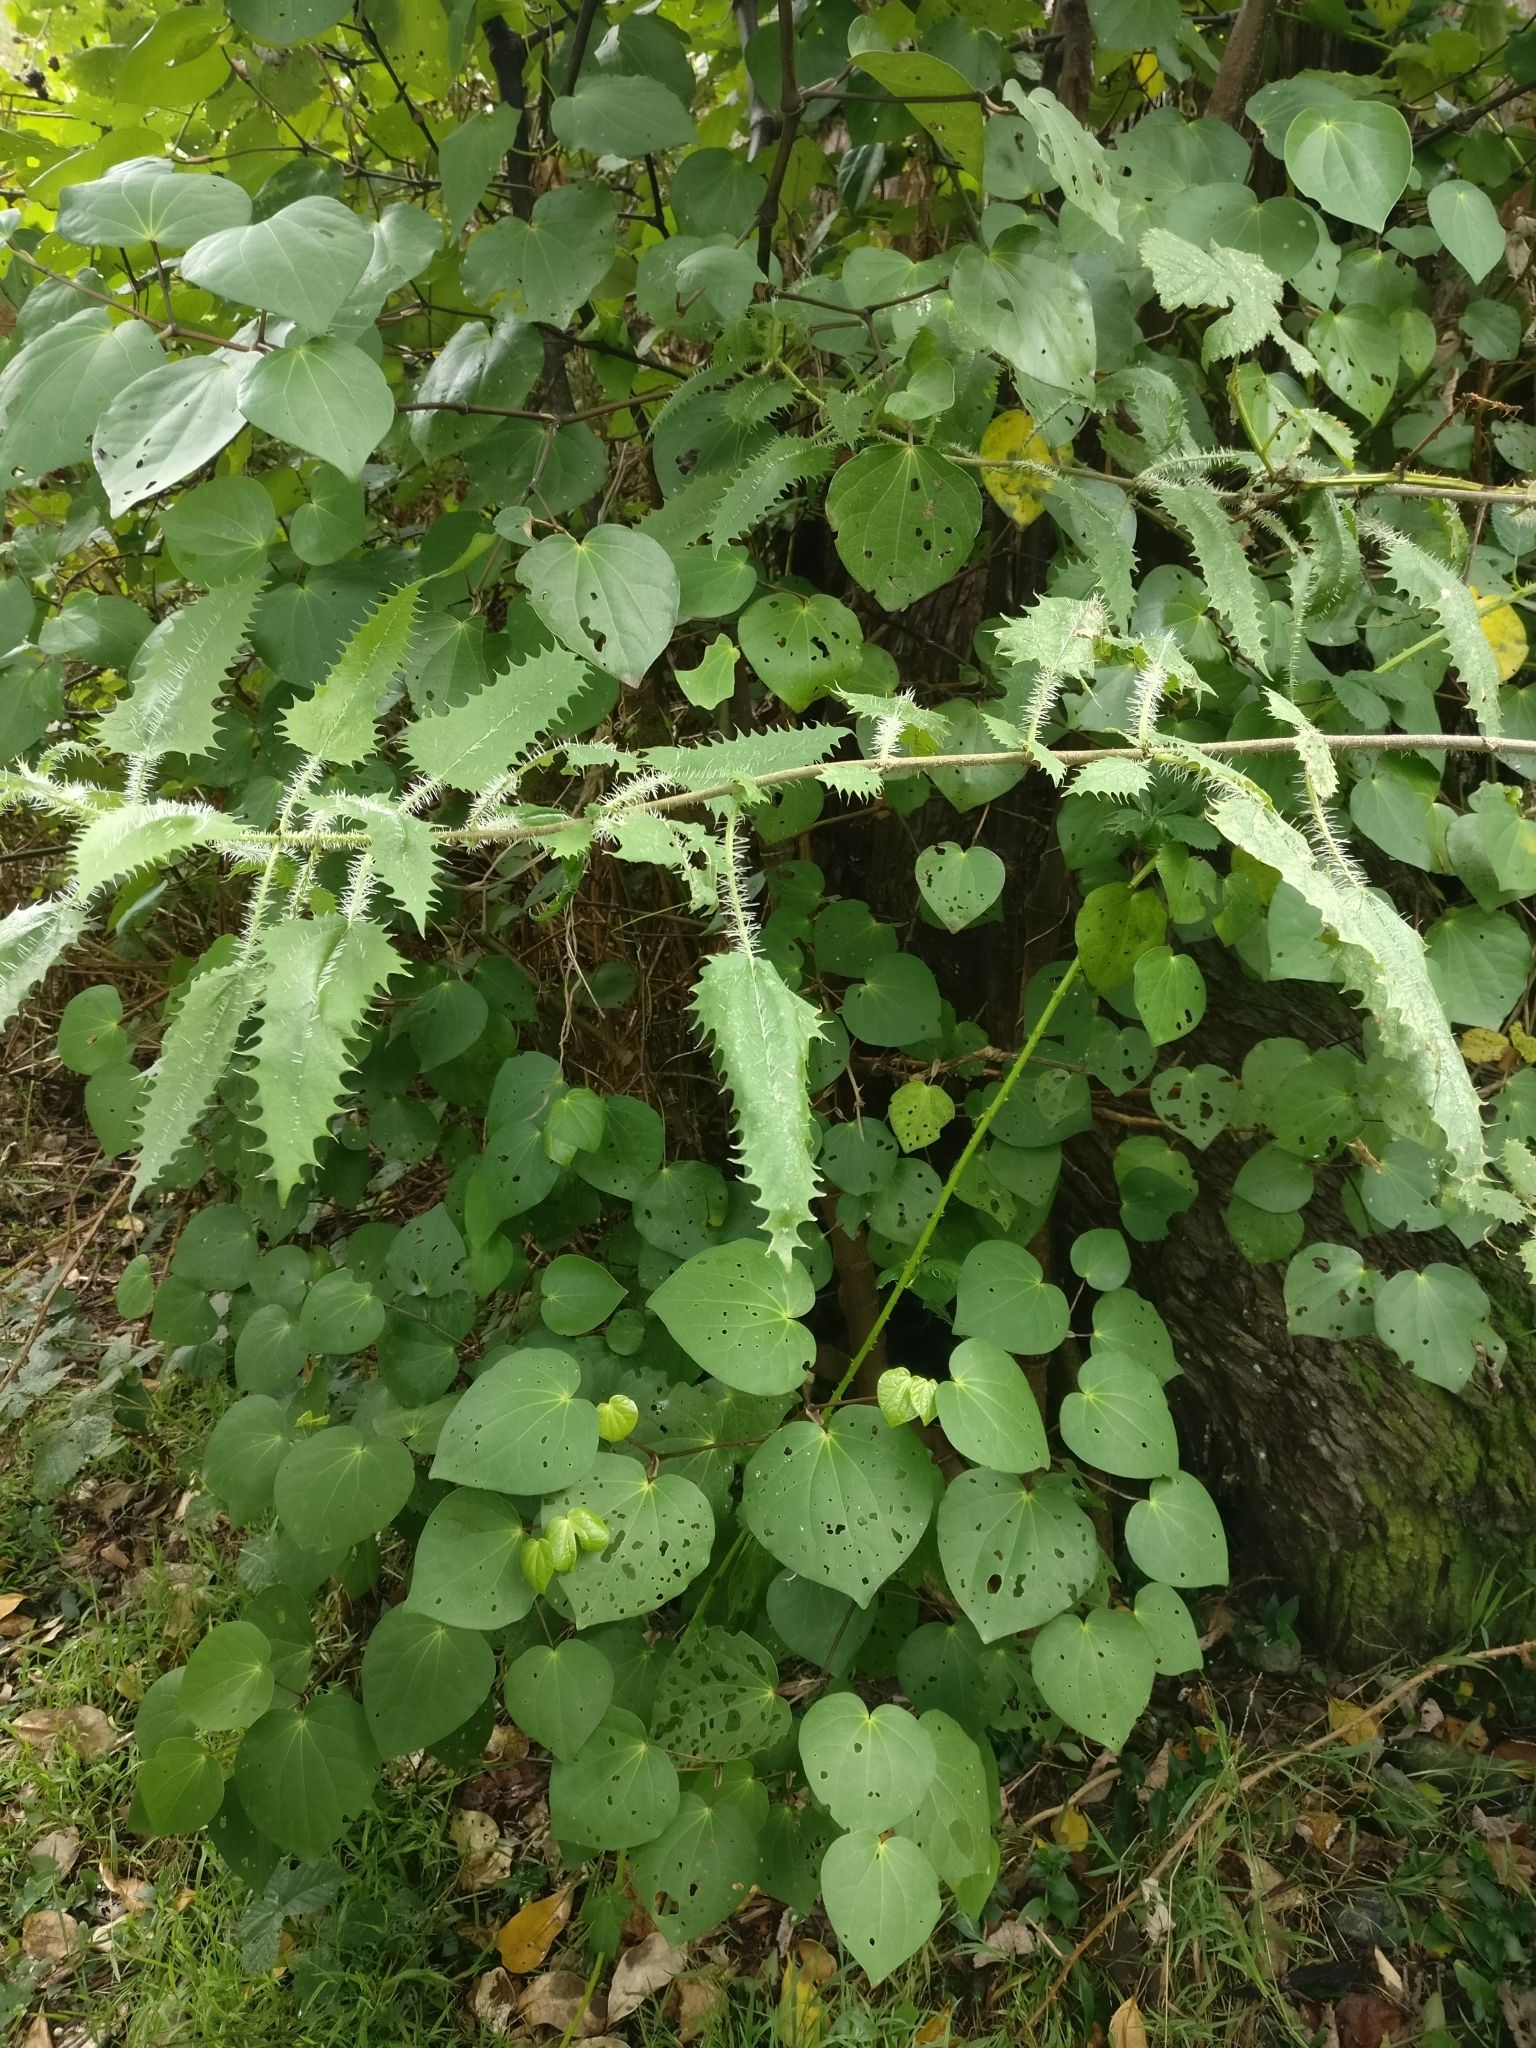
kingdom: Plantae
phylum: Tracheophyta
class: Magnoliopsida
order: Rosales
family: Urticaceae
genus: Urtica
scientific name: Urtica ferox
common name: Tree nettle
